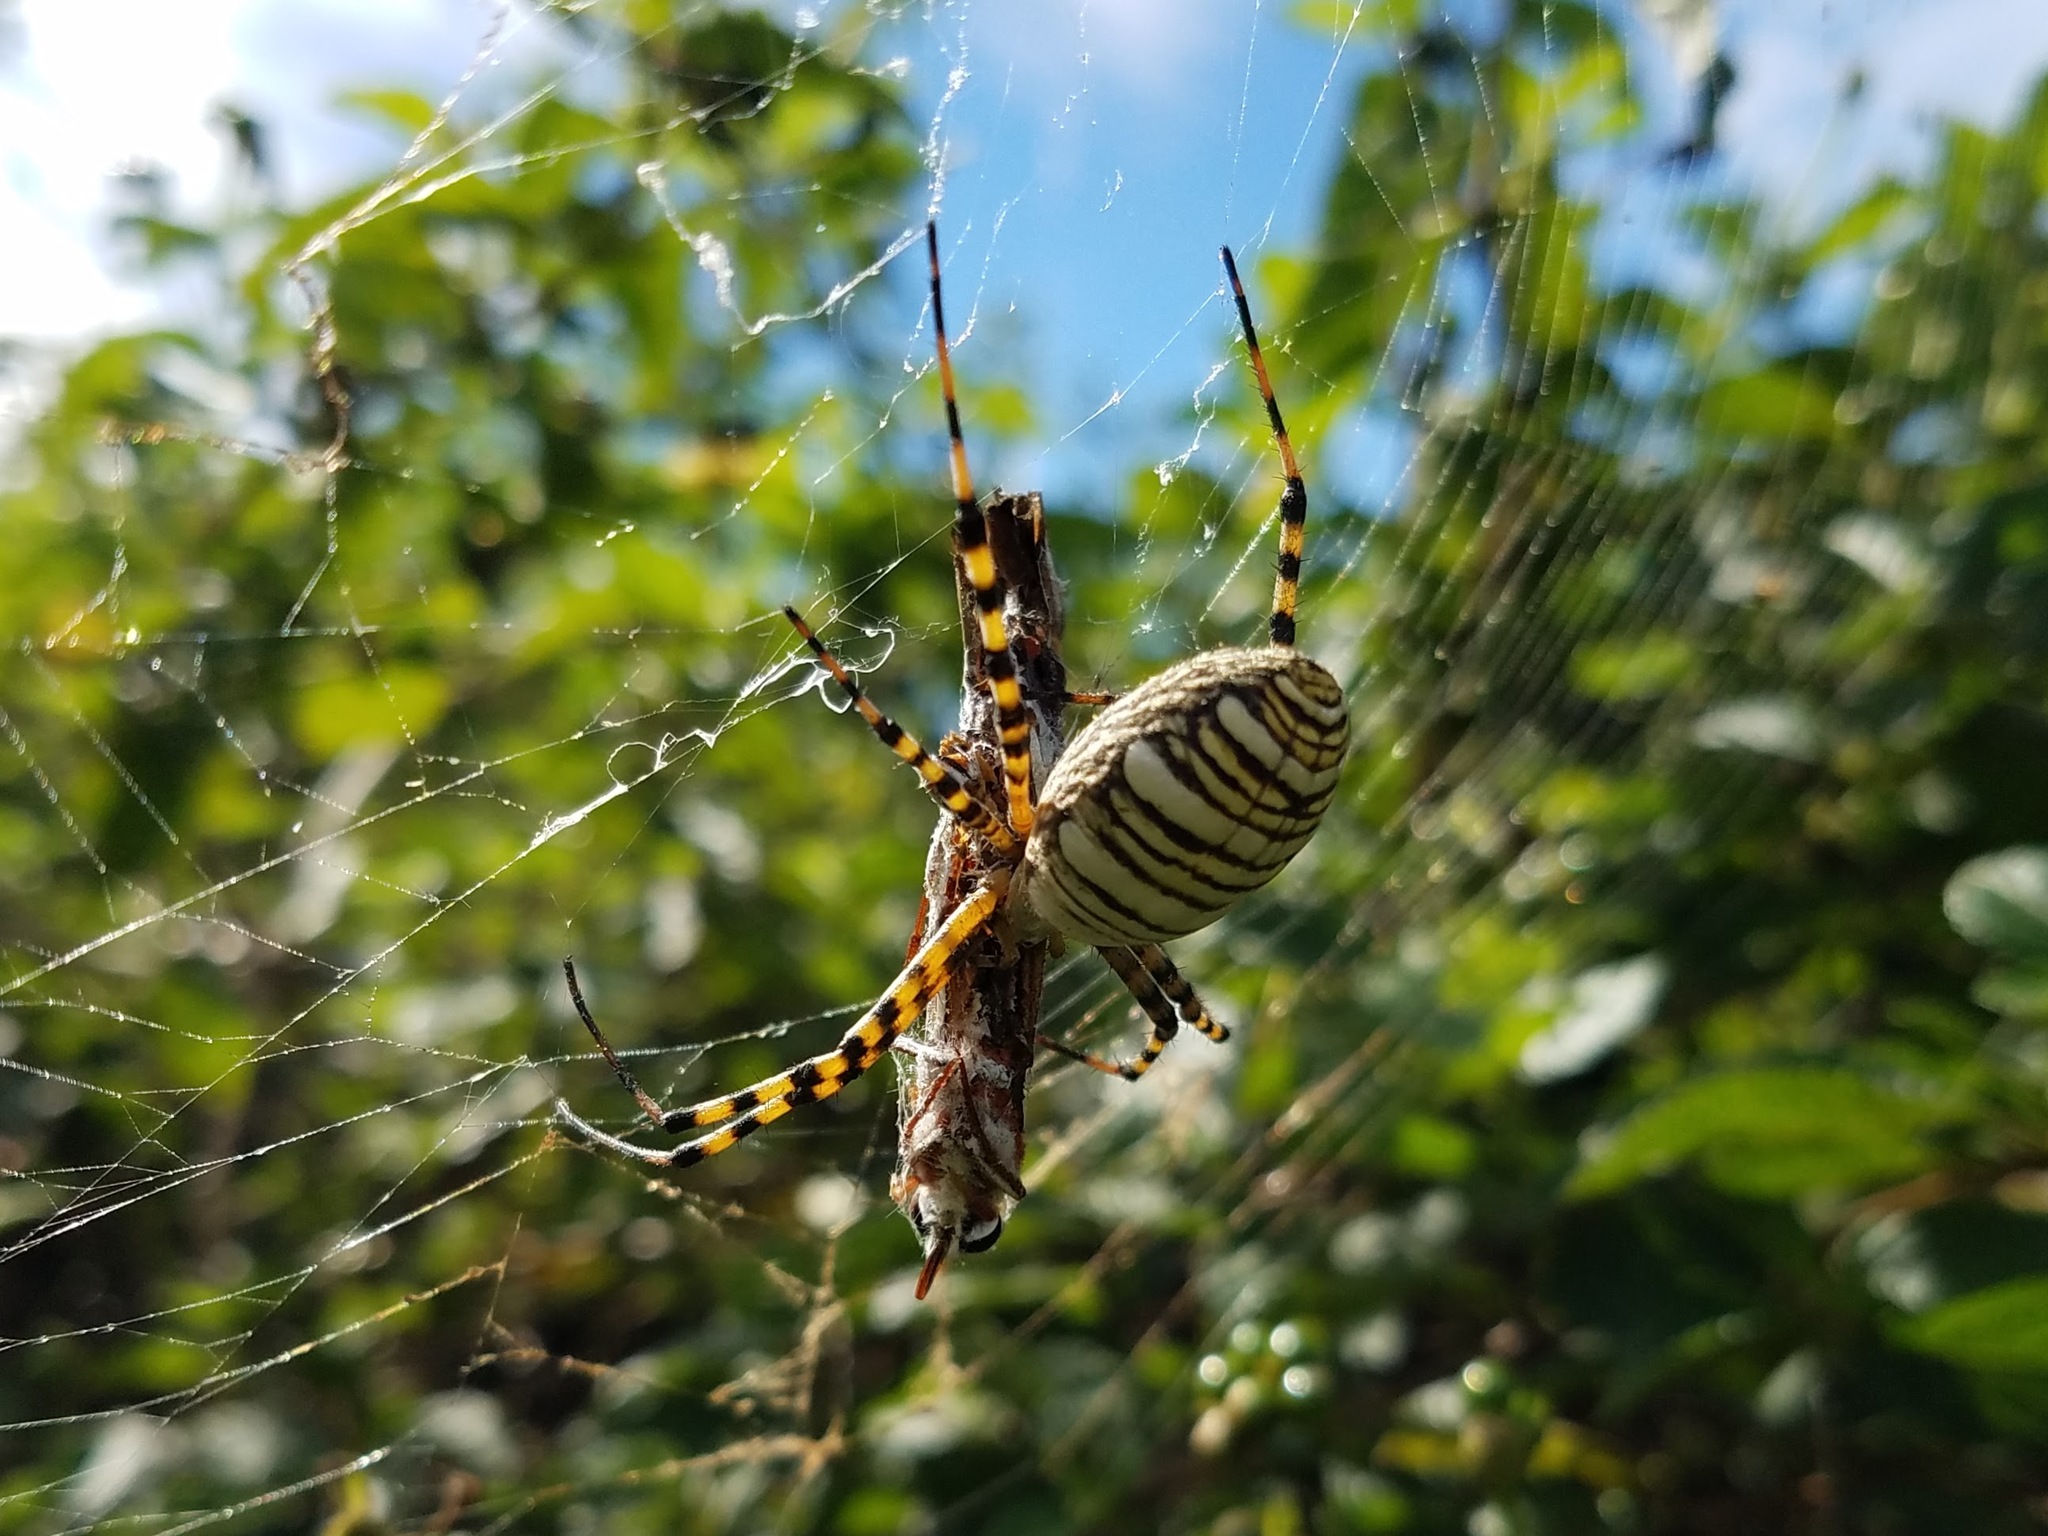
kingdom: Animalia
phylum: Arthropoda
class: Insecta
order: Lepidoptera
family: Nymphalidae
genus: Dione
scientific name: Dione vanillae
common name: Gulf fritillary
